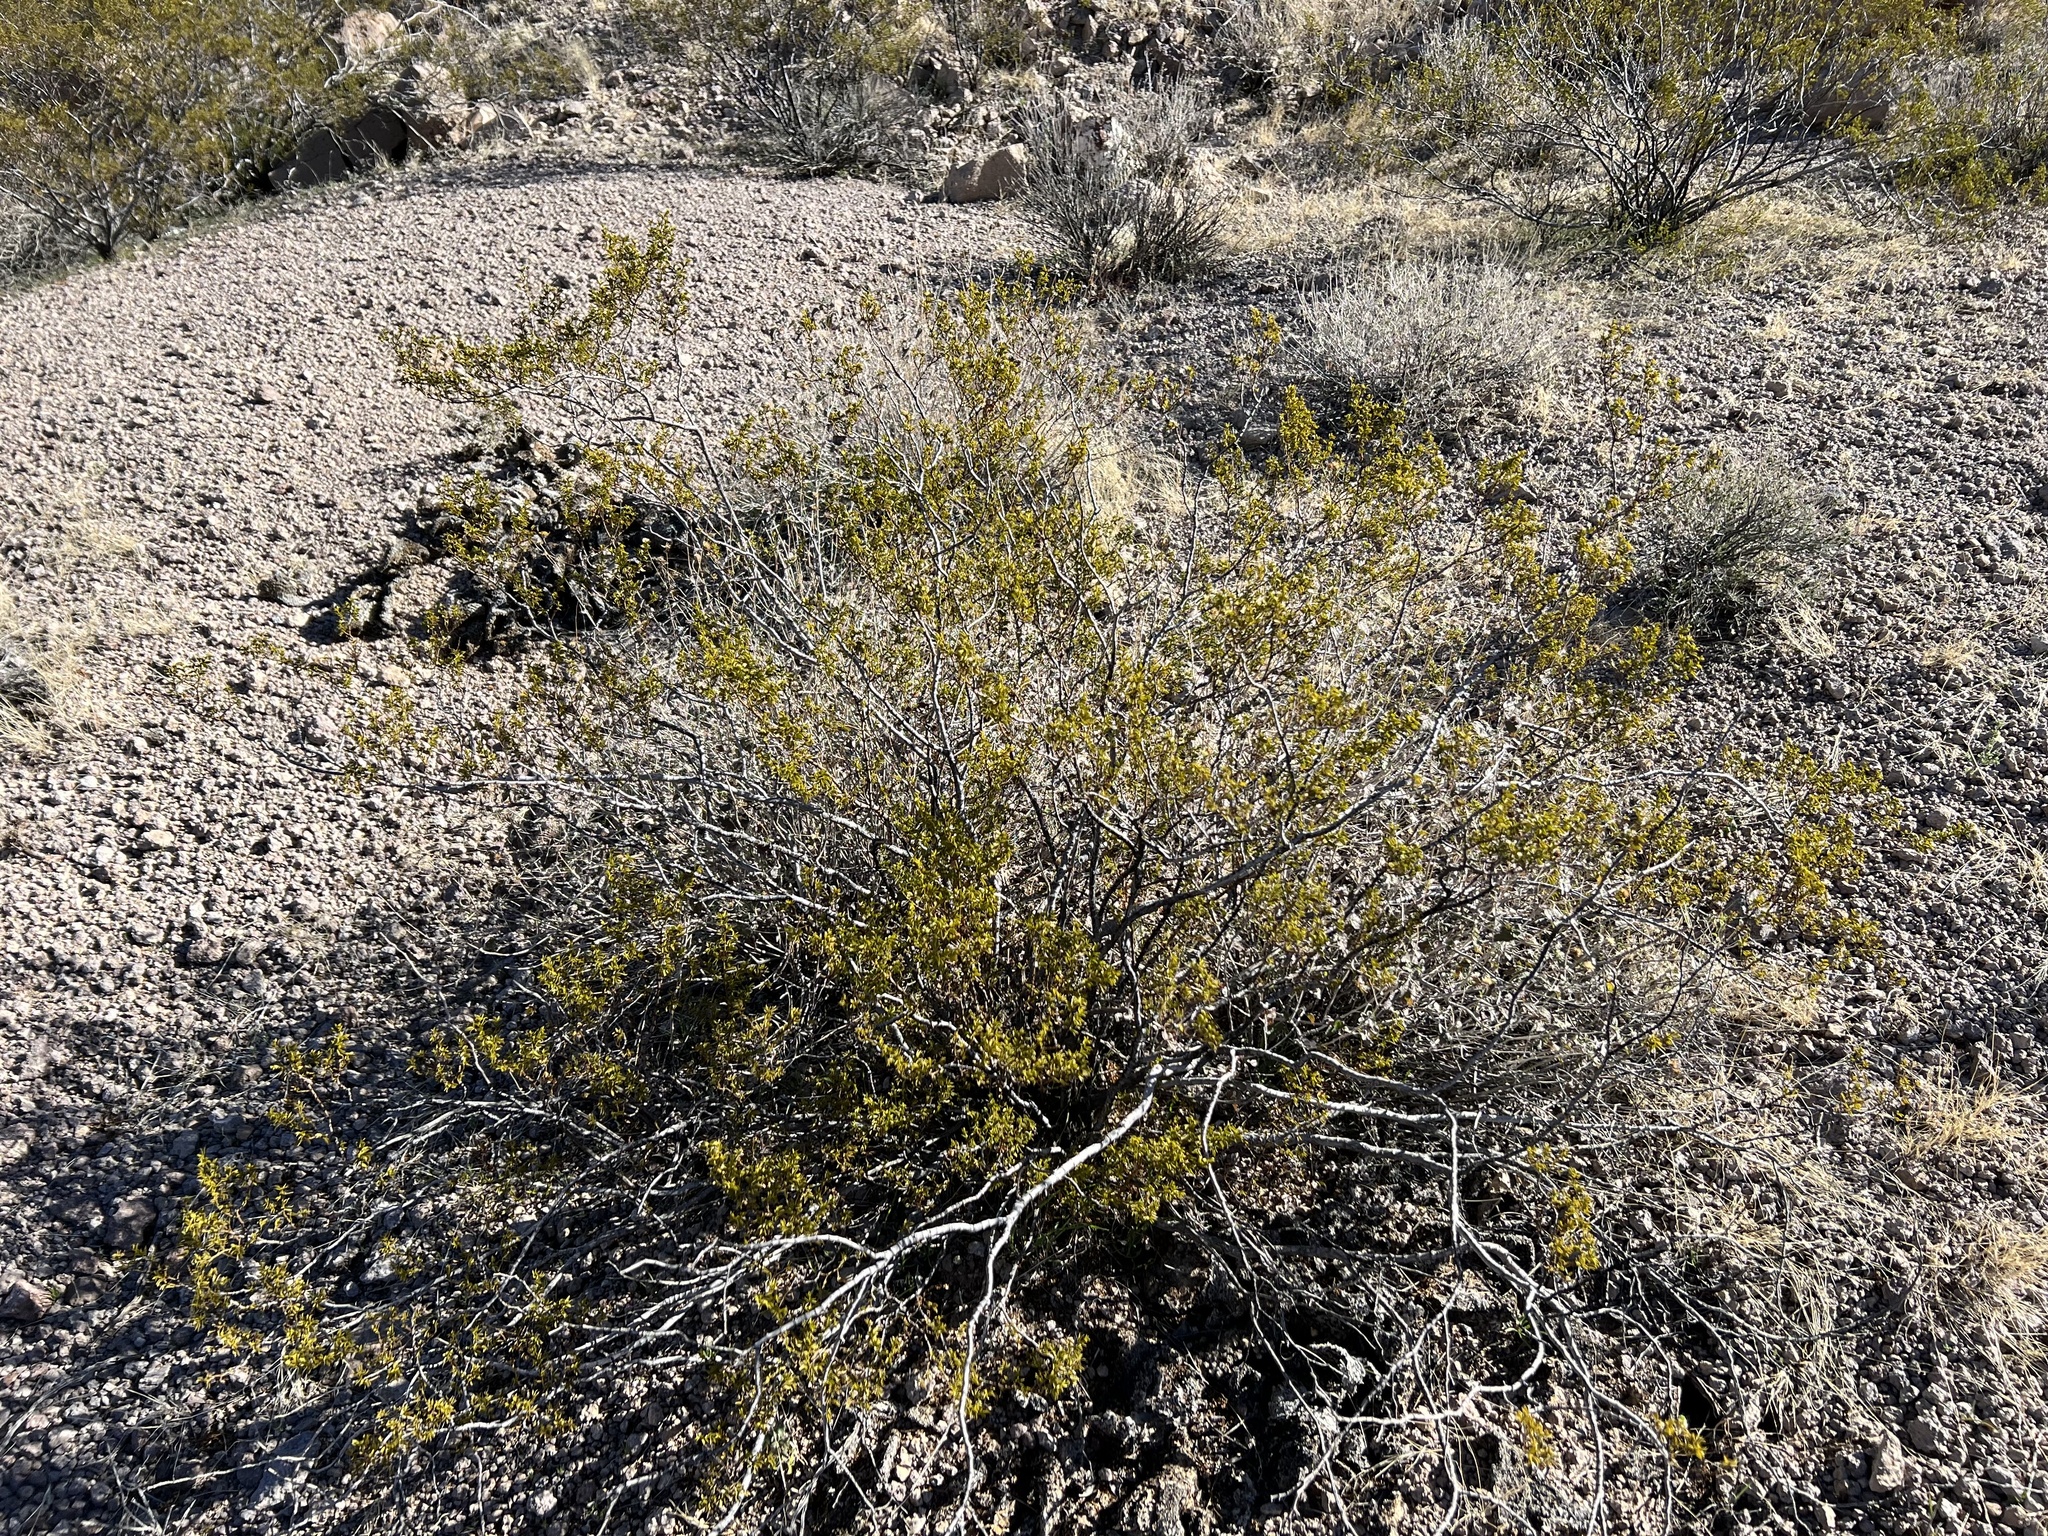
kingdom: Plantae
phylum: Tracheophyta
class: Magnoliopsida
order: Zygophyllales
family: Zygophyllaceae
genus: Larrea
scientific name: Larrea tridentata
